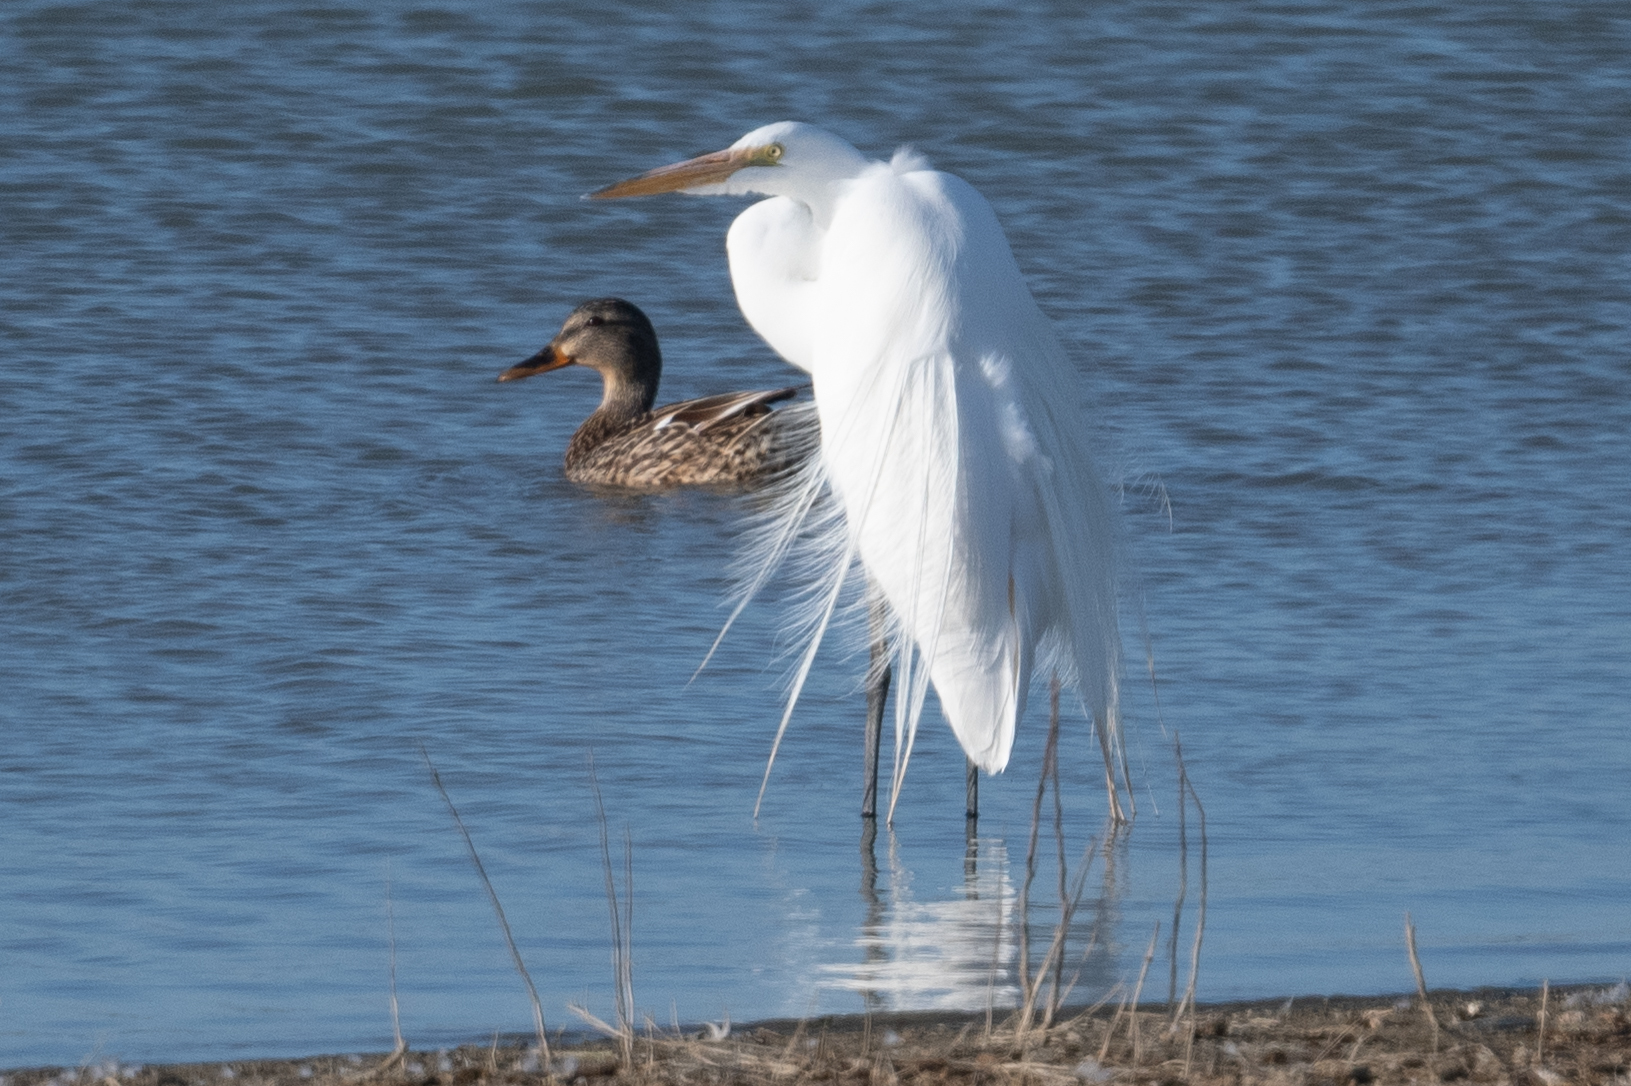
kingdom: Animalia
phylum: Chordata
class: Aves
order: Pelecaniformes
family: Ardeidae
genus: Ardea
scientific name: Ardea alba
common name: Great egret
